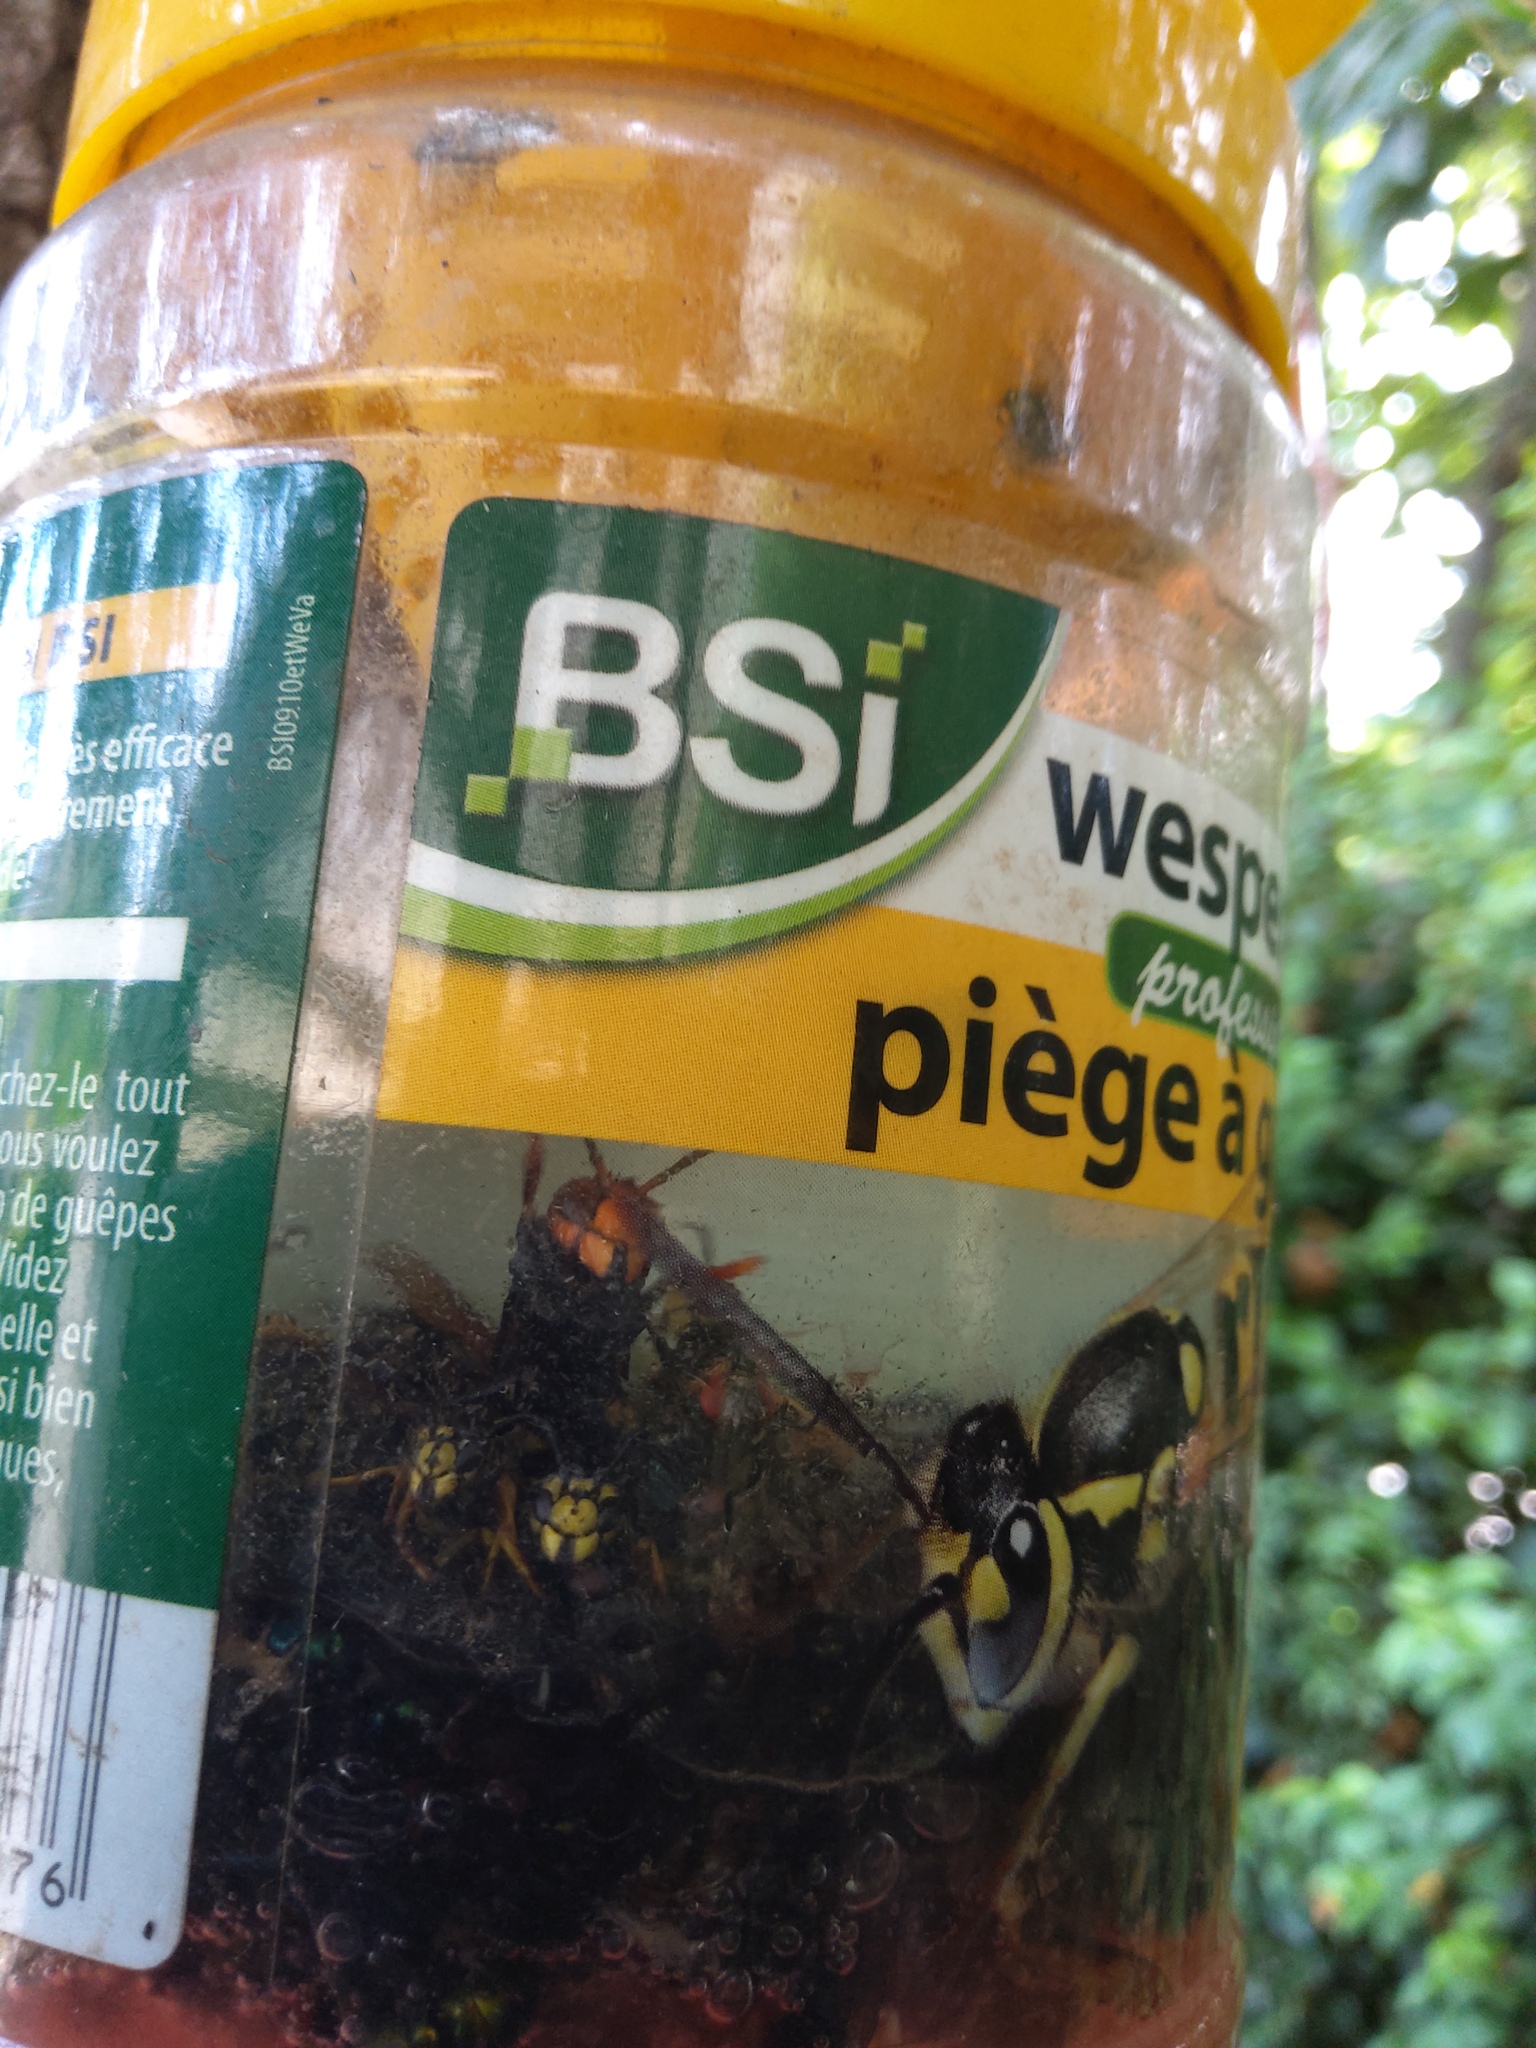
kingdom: Animalia
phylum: Arthropoda
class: Insecta
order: Hymenoptera
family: Vespidae
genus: Vespa
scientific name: Vespa velutina
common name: Asian hornet
